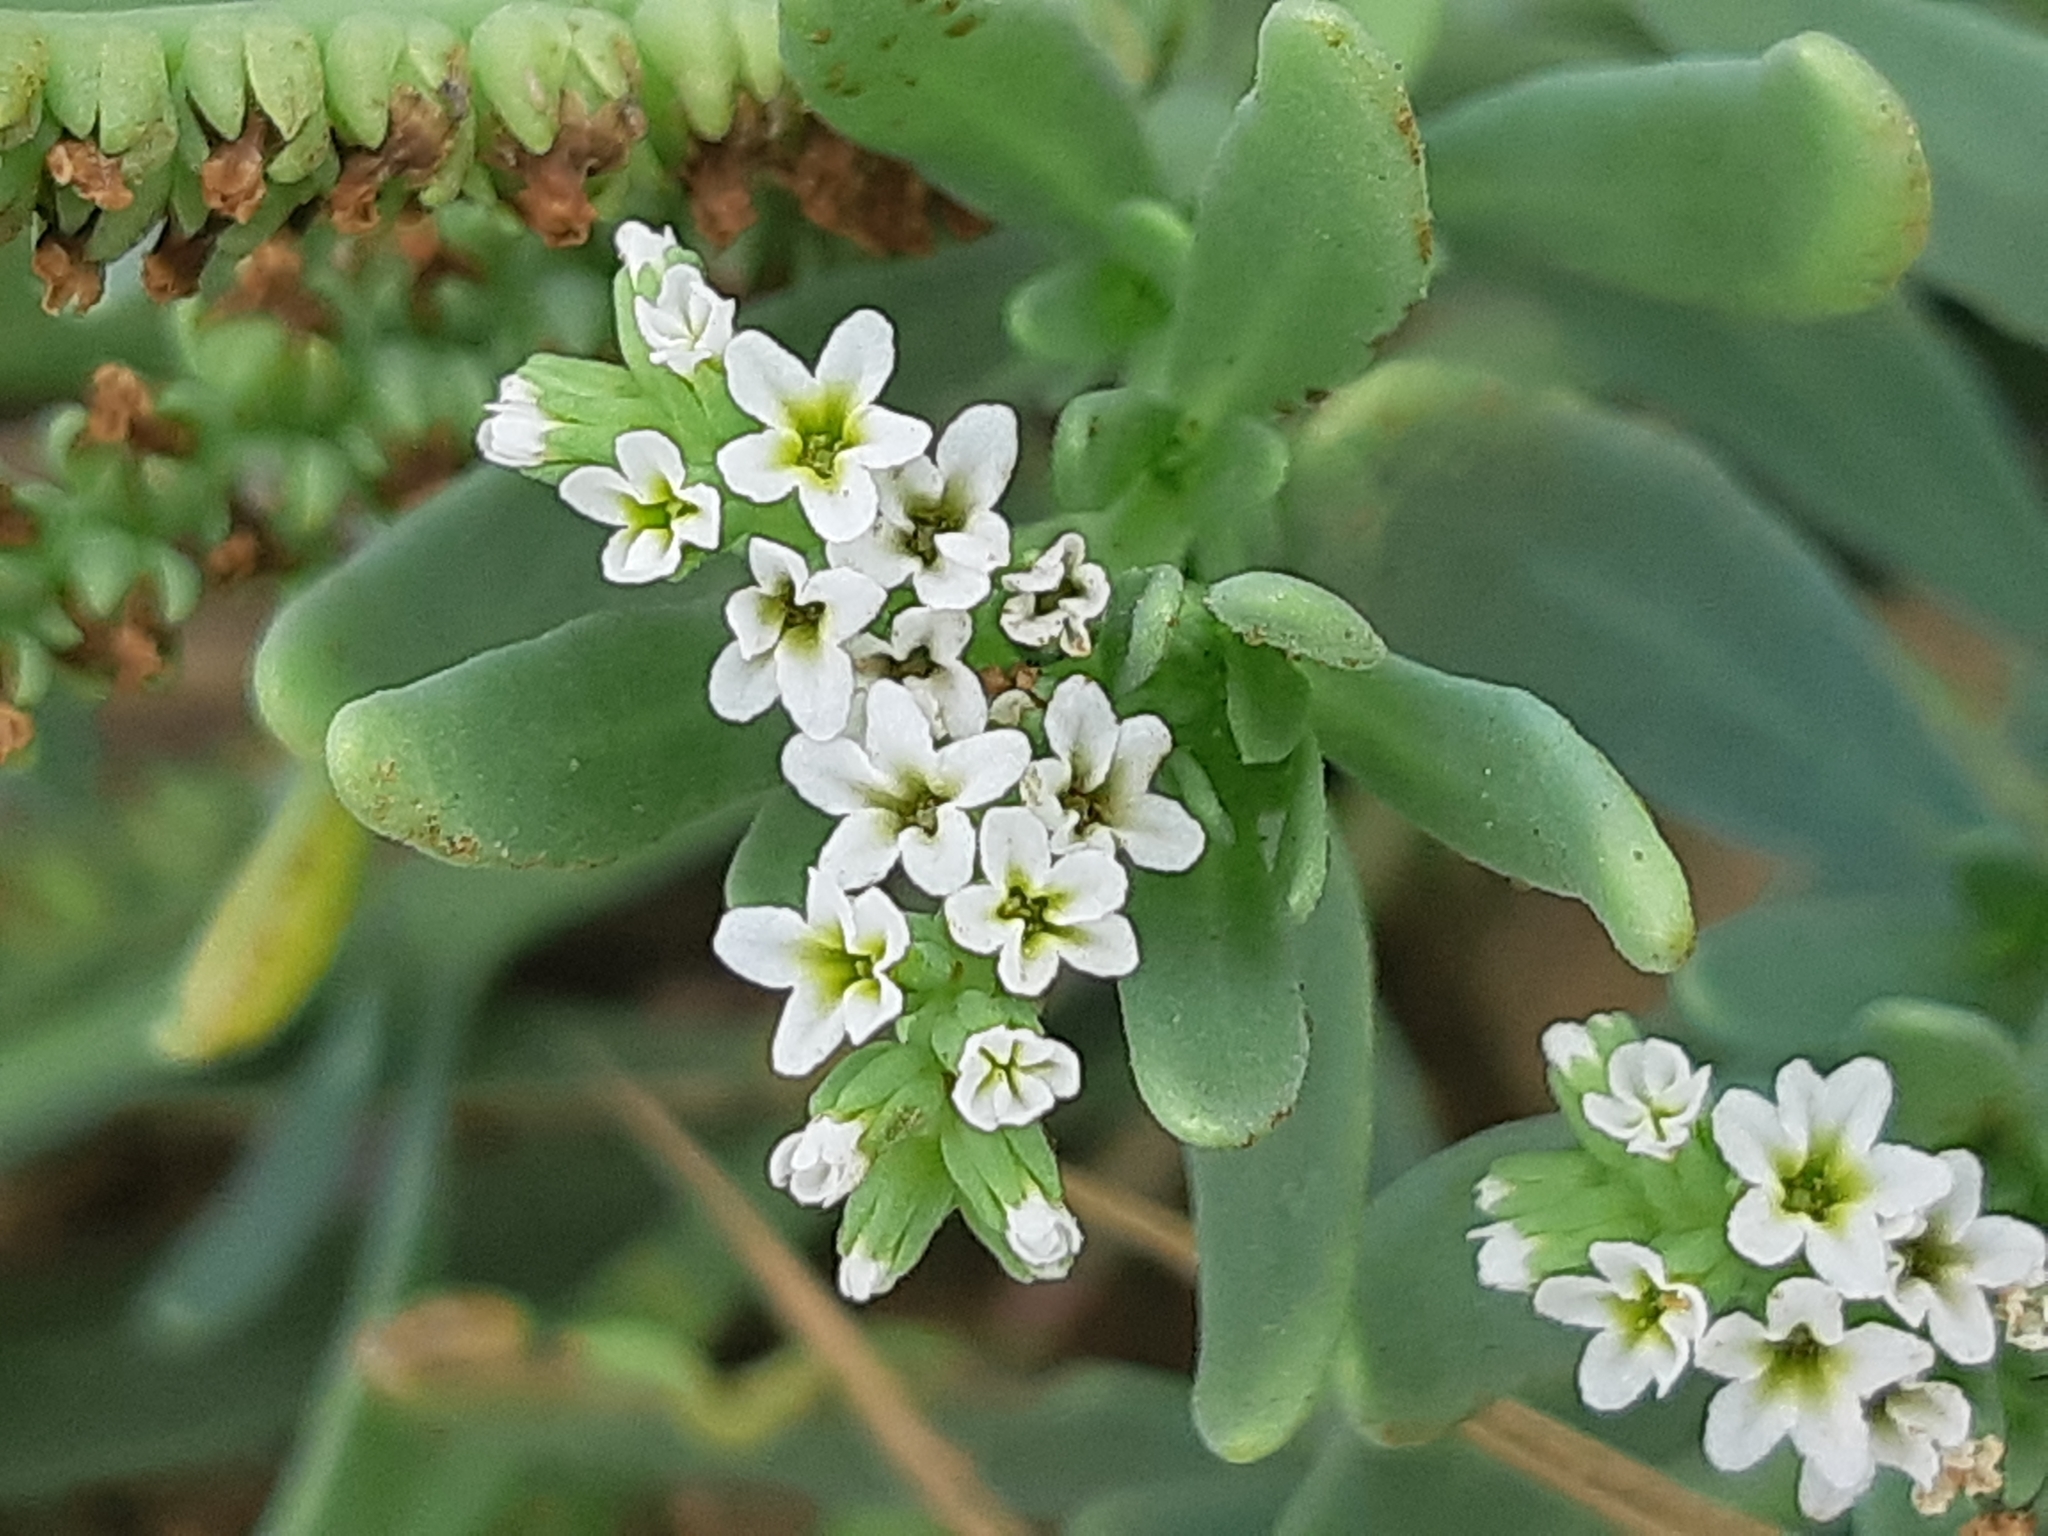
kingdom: Plantae
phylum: Tracheophyta
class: Magnoliopsida
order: Boraginales
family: Heliotropiaceae
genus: Heliotropium
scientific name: Heliotropium curassavicum
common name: Seaside heliotrope
